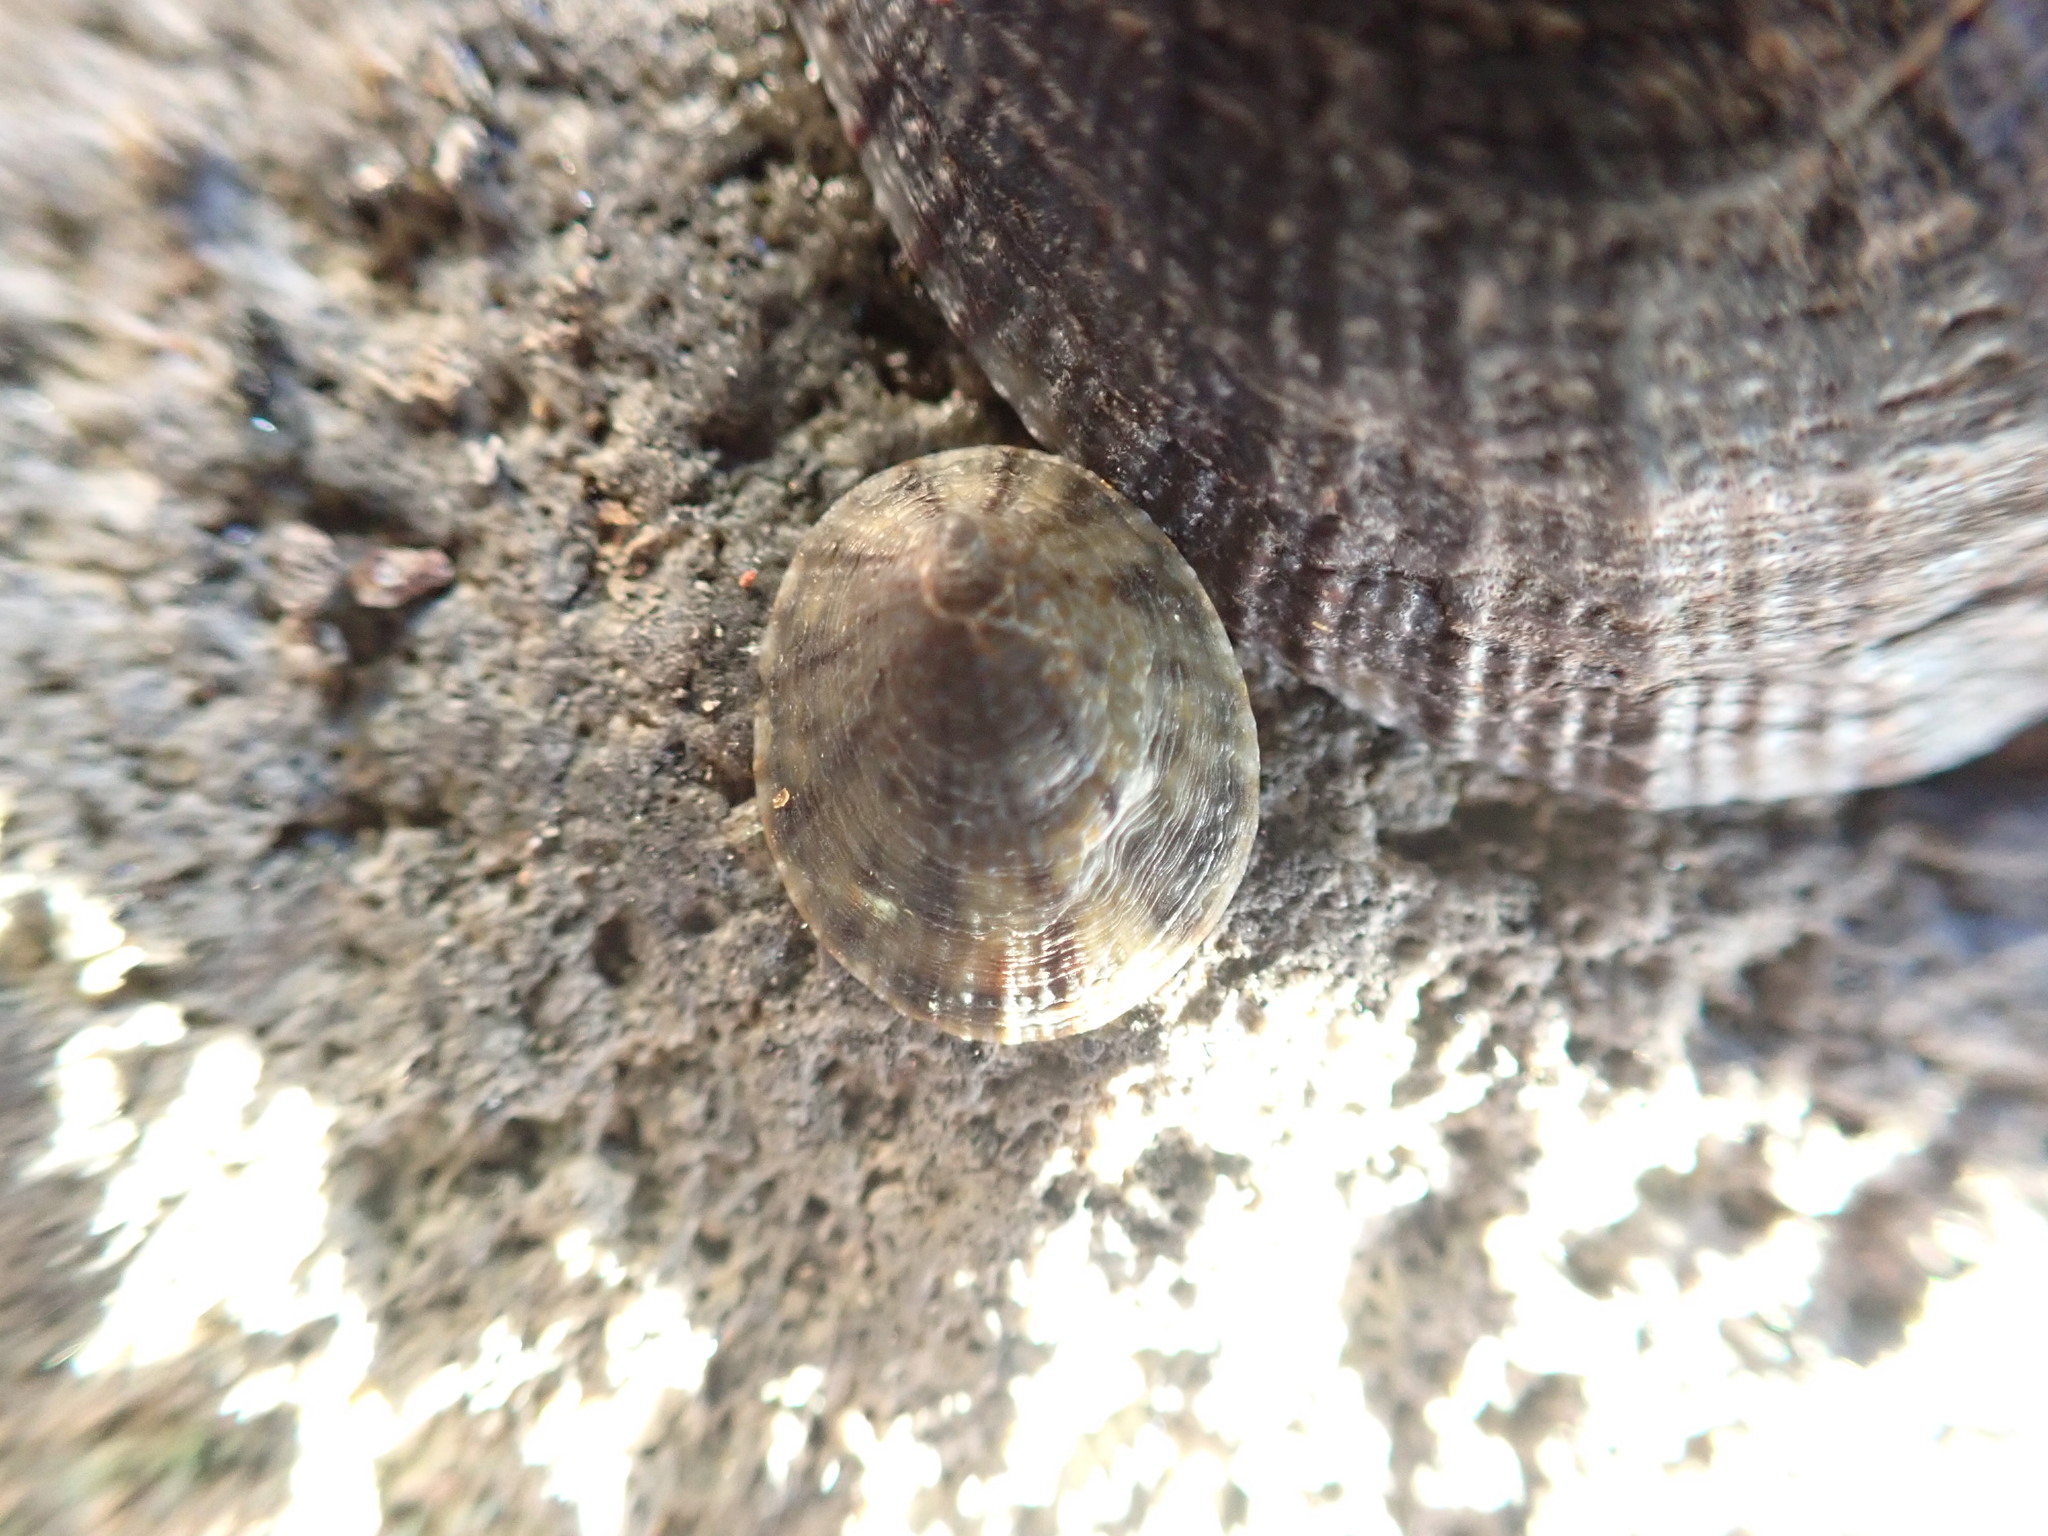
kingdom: Animalia
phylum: Mollusca
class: Gastropoda
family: Nacellidae
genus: Cellana
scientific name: Cellana radians
